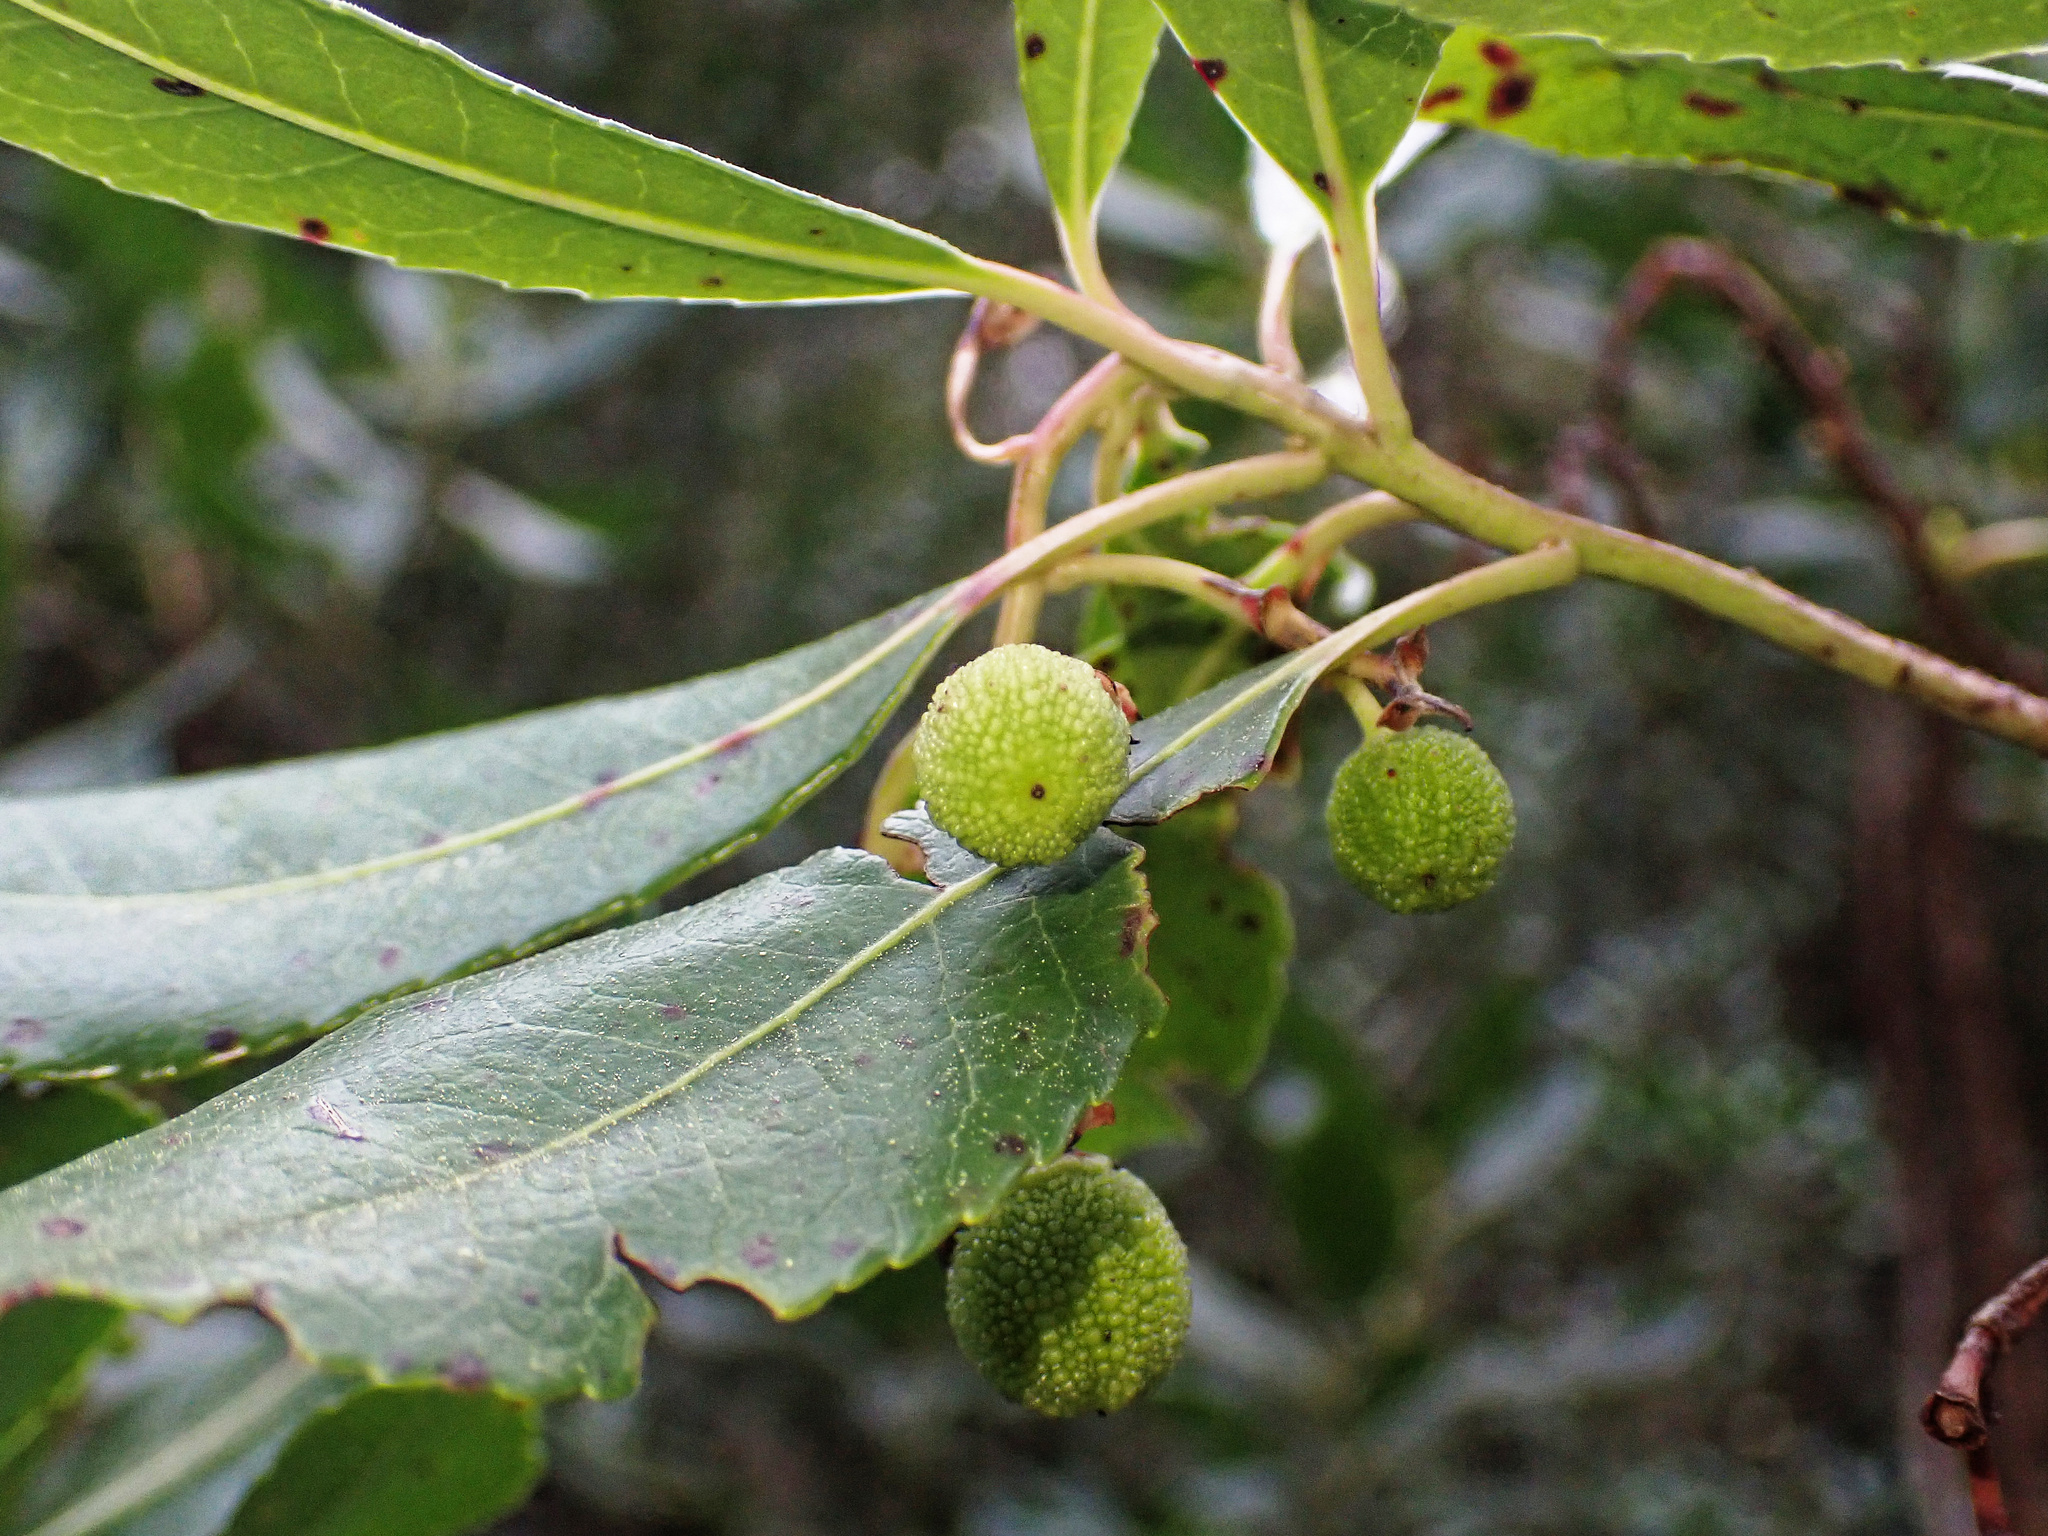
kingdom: Plantae
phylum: Tracheophyta
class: Magnoliopsida
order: Ericales
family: Ericaceae
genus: Arbutus
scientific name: Arbutus unedo
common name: Strawberry-tree
